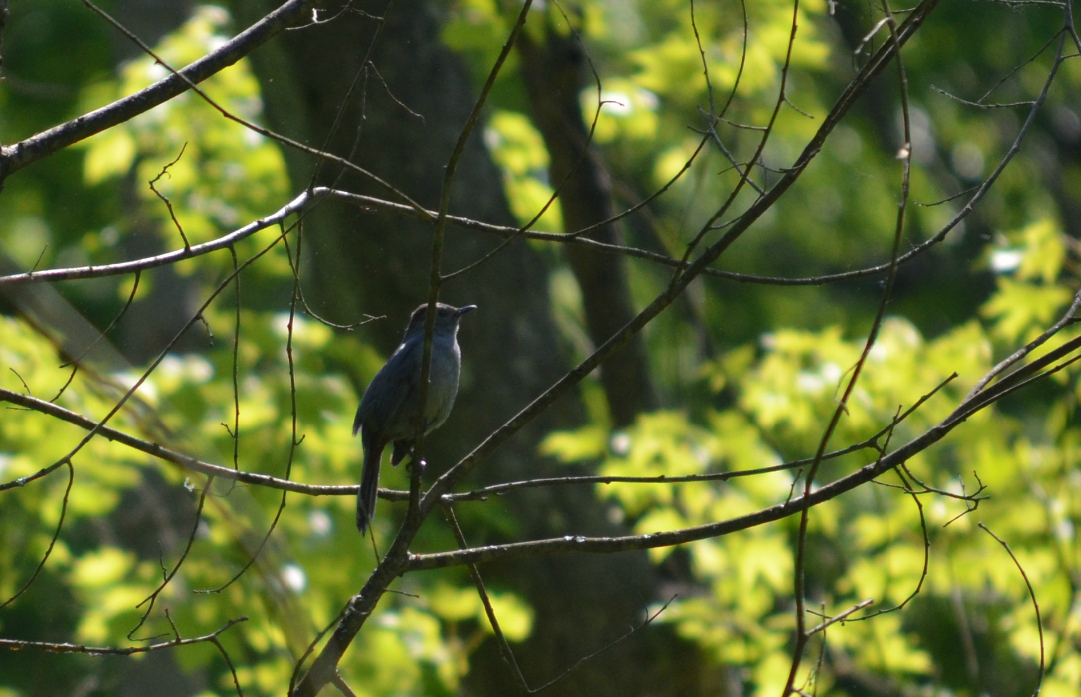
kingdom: Animalia
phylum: Chordata
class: Aves
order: Passeriformes
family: Mimidae
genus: Dumetella
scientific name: Dumetella carolinensis
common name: Gray catbird
